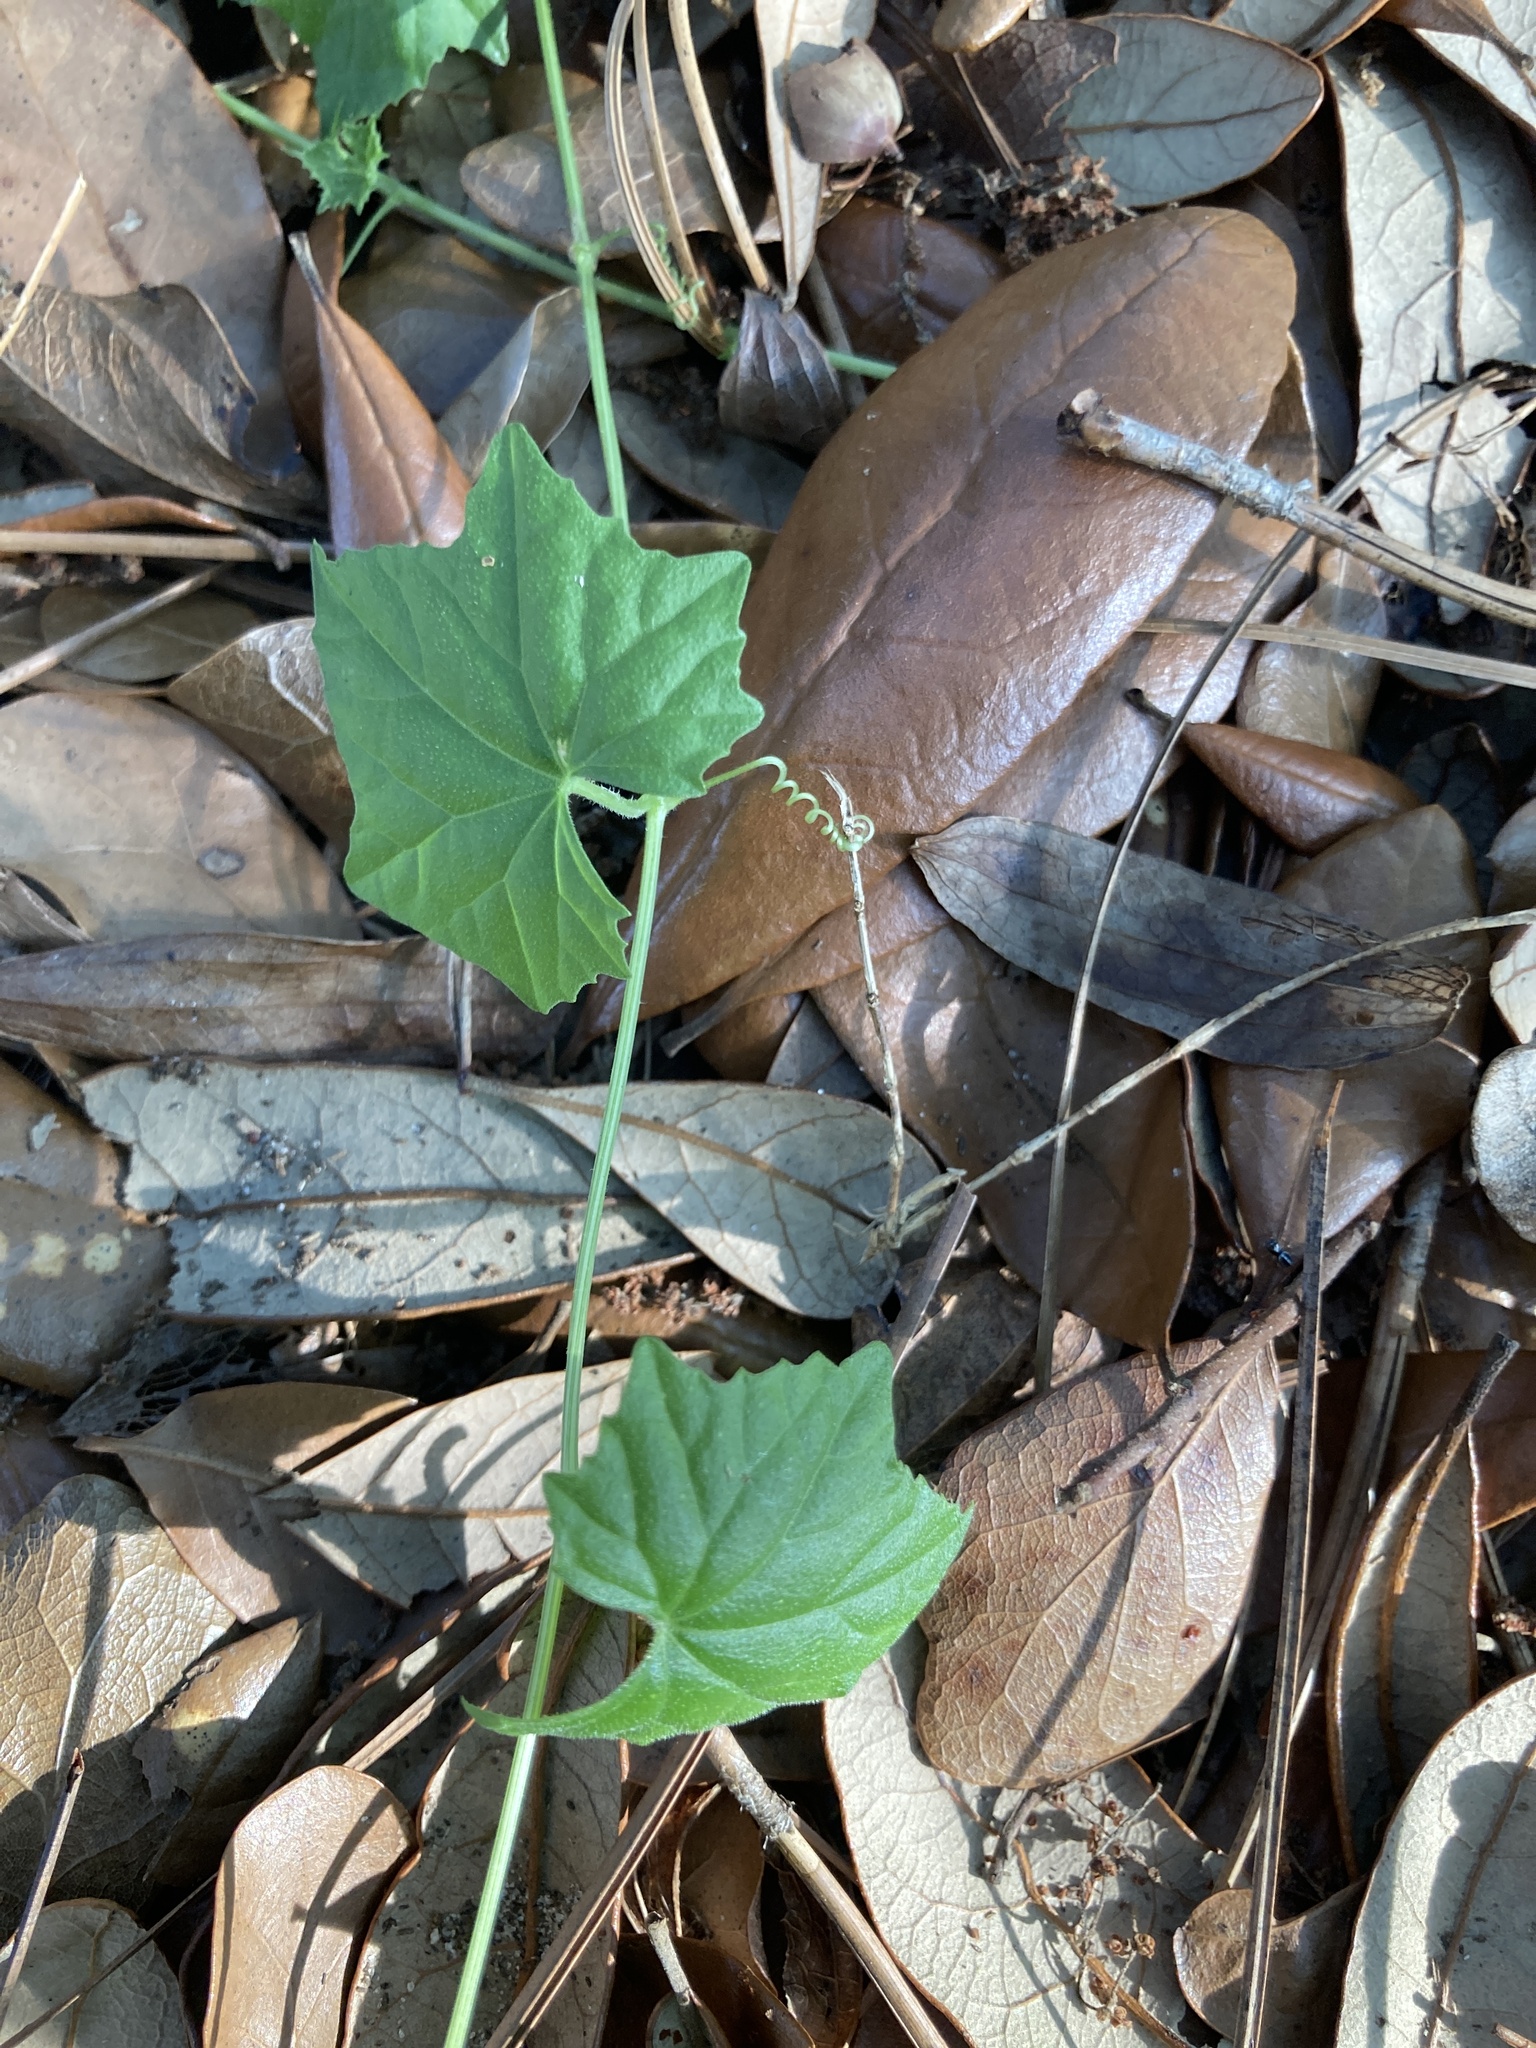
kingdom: Plantae
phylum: Tracheophyta
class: Magnoliopsida
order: Cucurbitales
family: Cucurbitaceae
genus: Melothria
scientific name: Melothria pendula
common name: Creeping-cucumber
